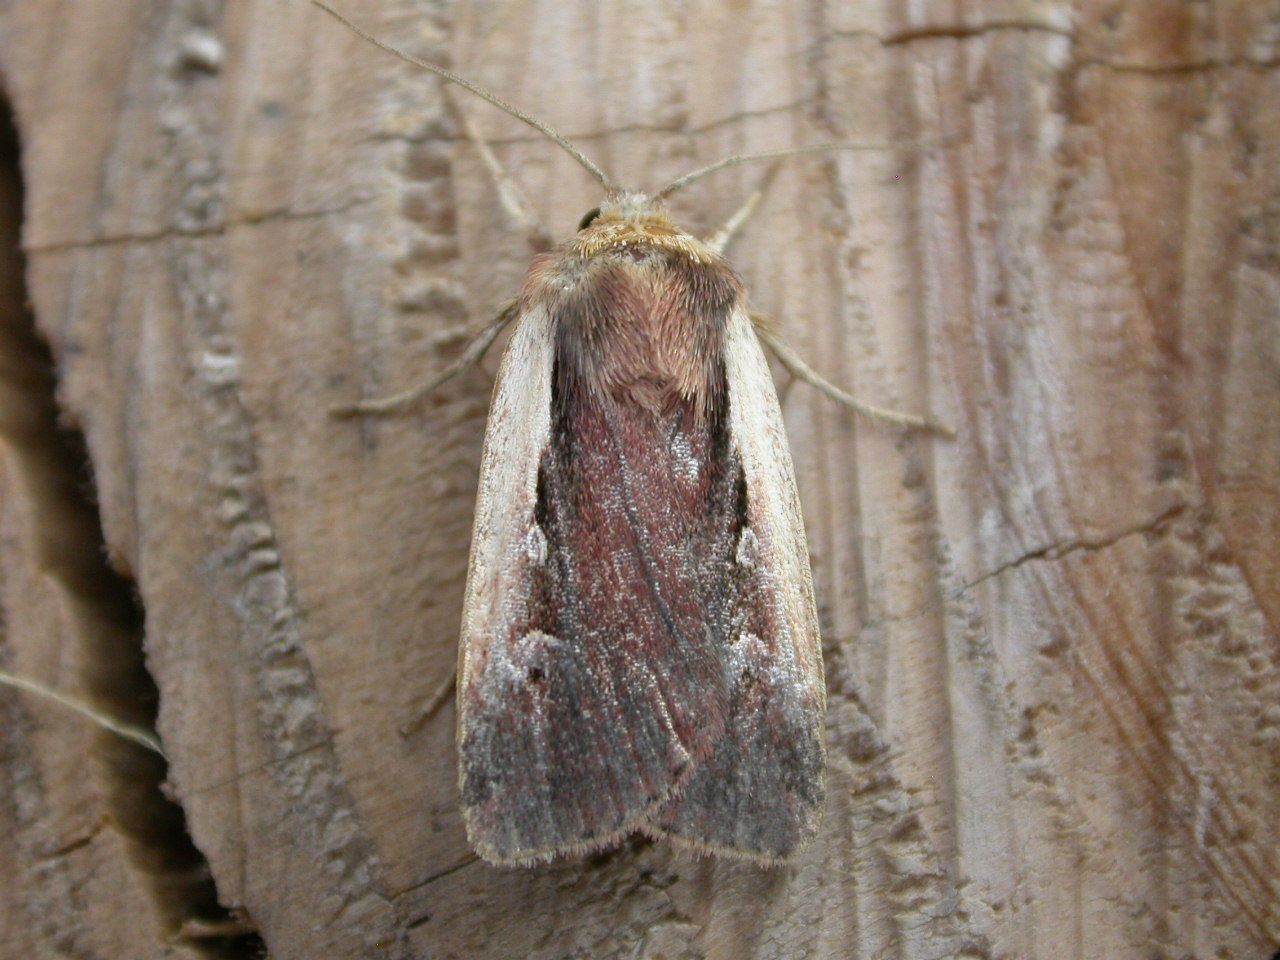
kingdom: Animalia
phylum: Arthropoda
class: Insecta
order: Lepidoptera
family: Noctuidae
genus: Ochropleura
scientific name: Ochropleura plecta
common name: Flame shoulder
